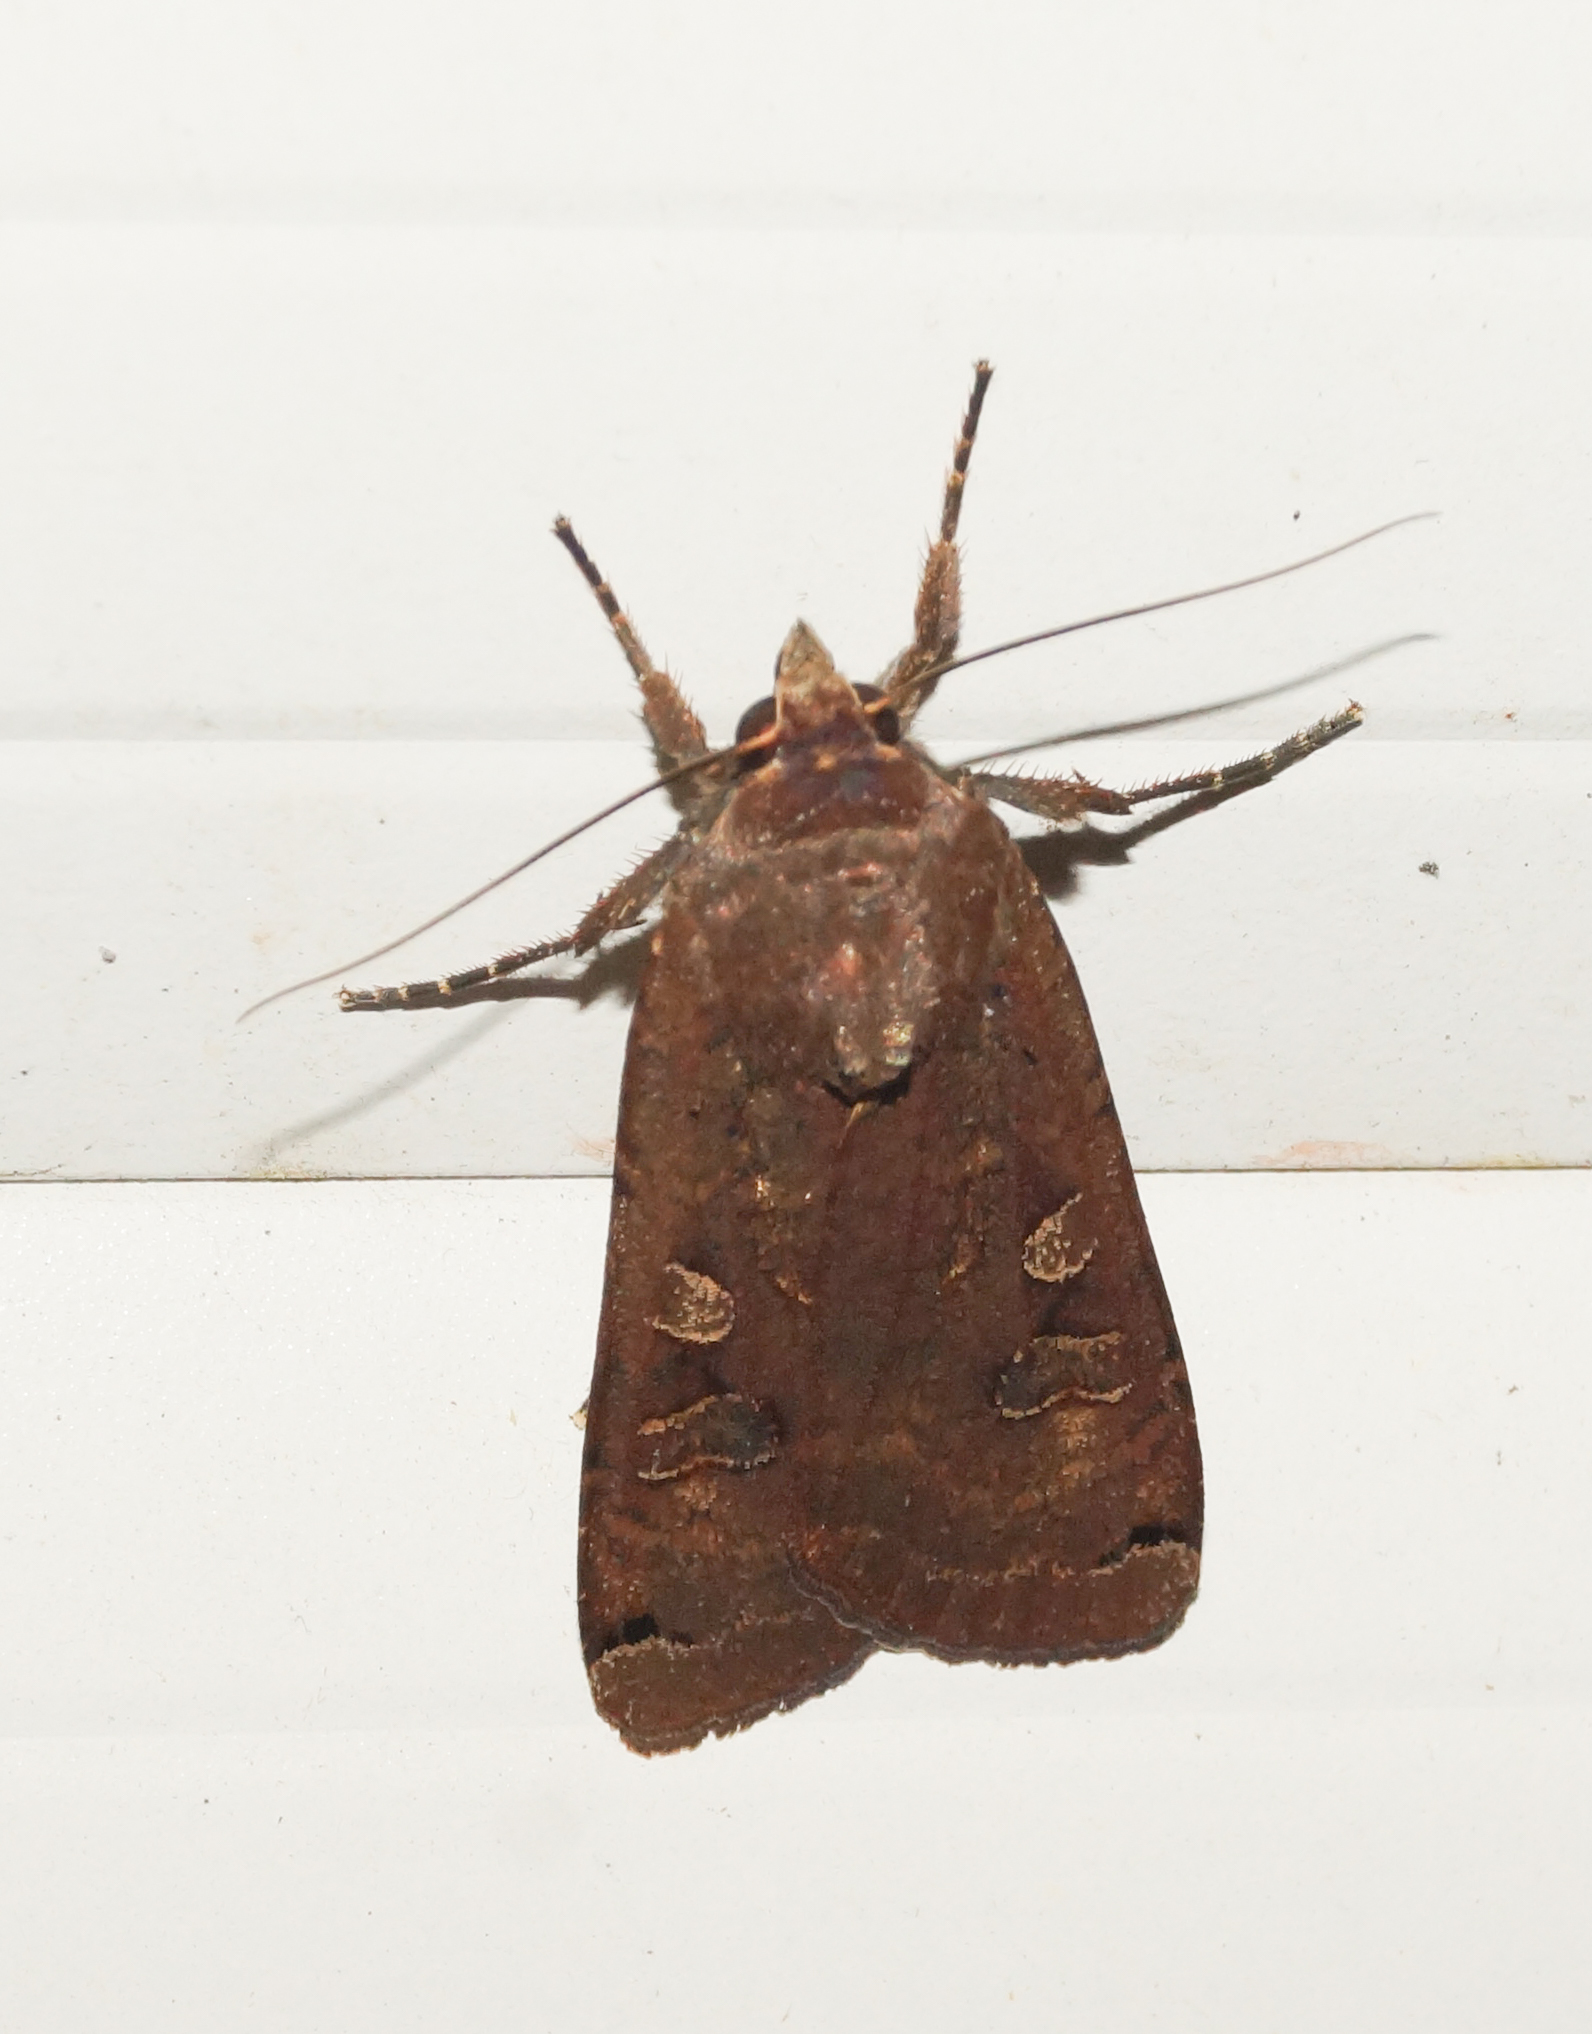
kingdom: Animalia
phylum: Arthropoda
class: Insecta
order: Lepidoptera
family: Noctuidae
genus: Noctua
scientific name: Noctua pronuba
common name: Large yellow underwing
